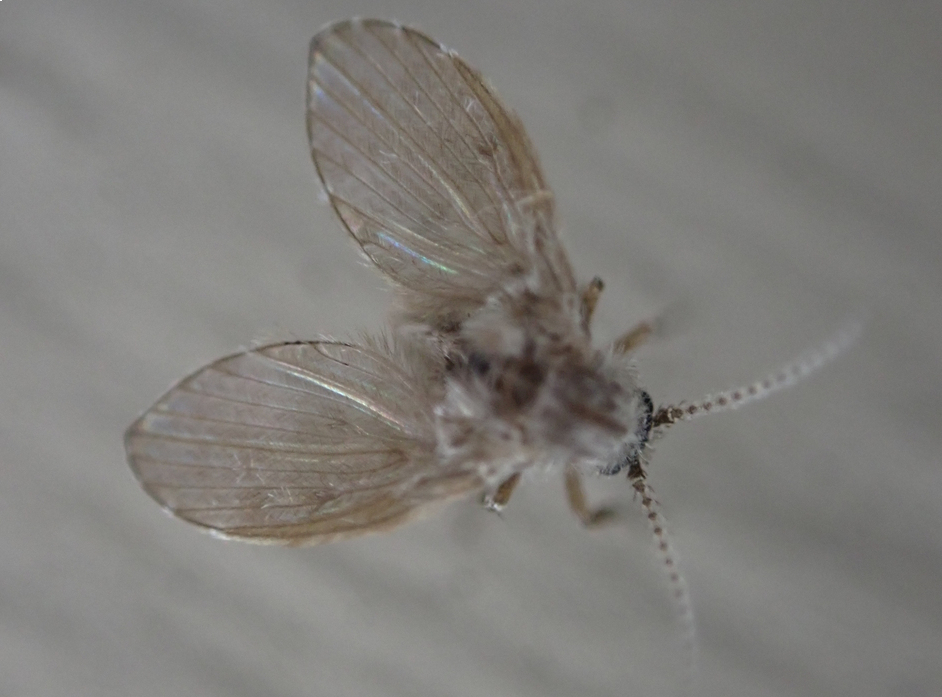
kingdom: Animalia
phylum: Arthropoda
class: Insecta
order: Diptera
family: Psychodidae
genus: Clogmia
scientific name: Clogmia albipunctatus
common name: White-spotted moth fly
